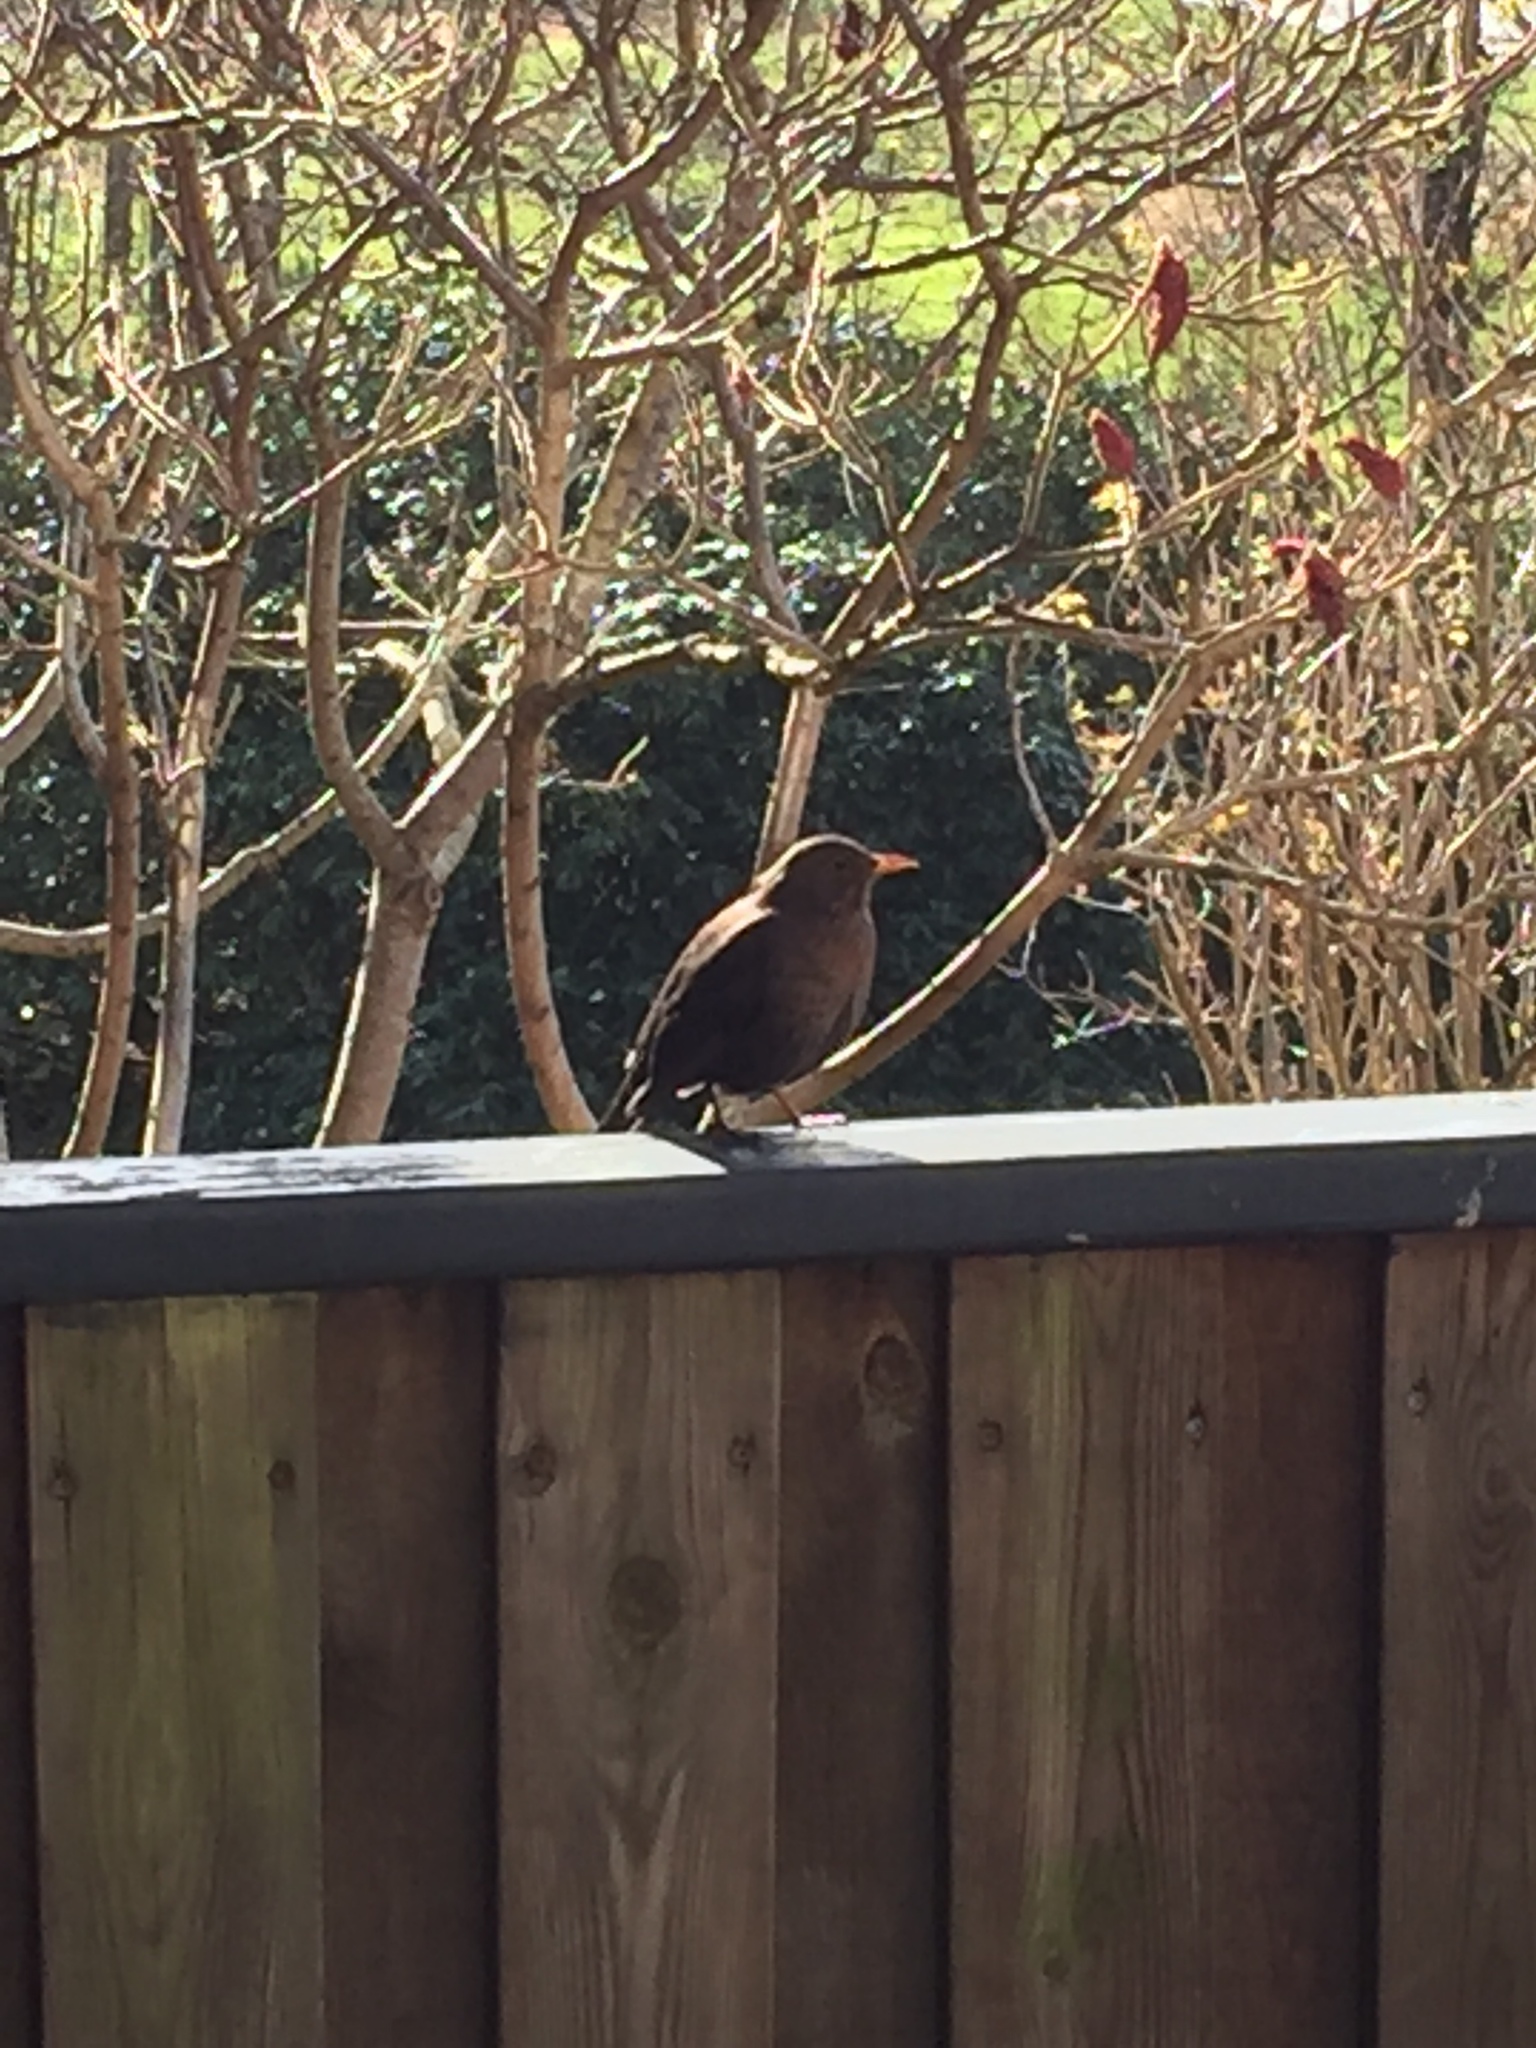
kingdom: Animalia
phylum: Chordata
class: Aves
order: Passeriformes
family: Turdidae
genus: Turdus
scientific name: Turdus merula
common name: Common blackbird
